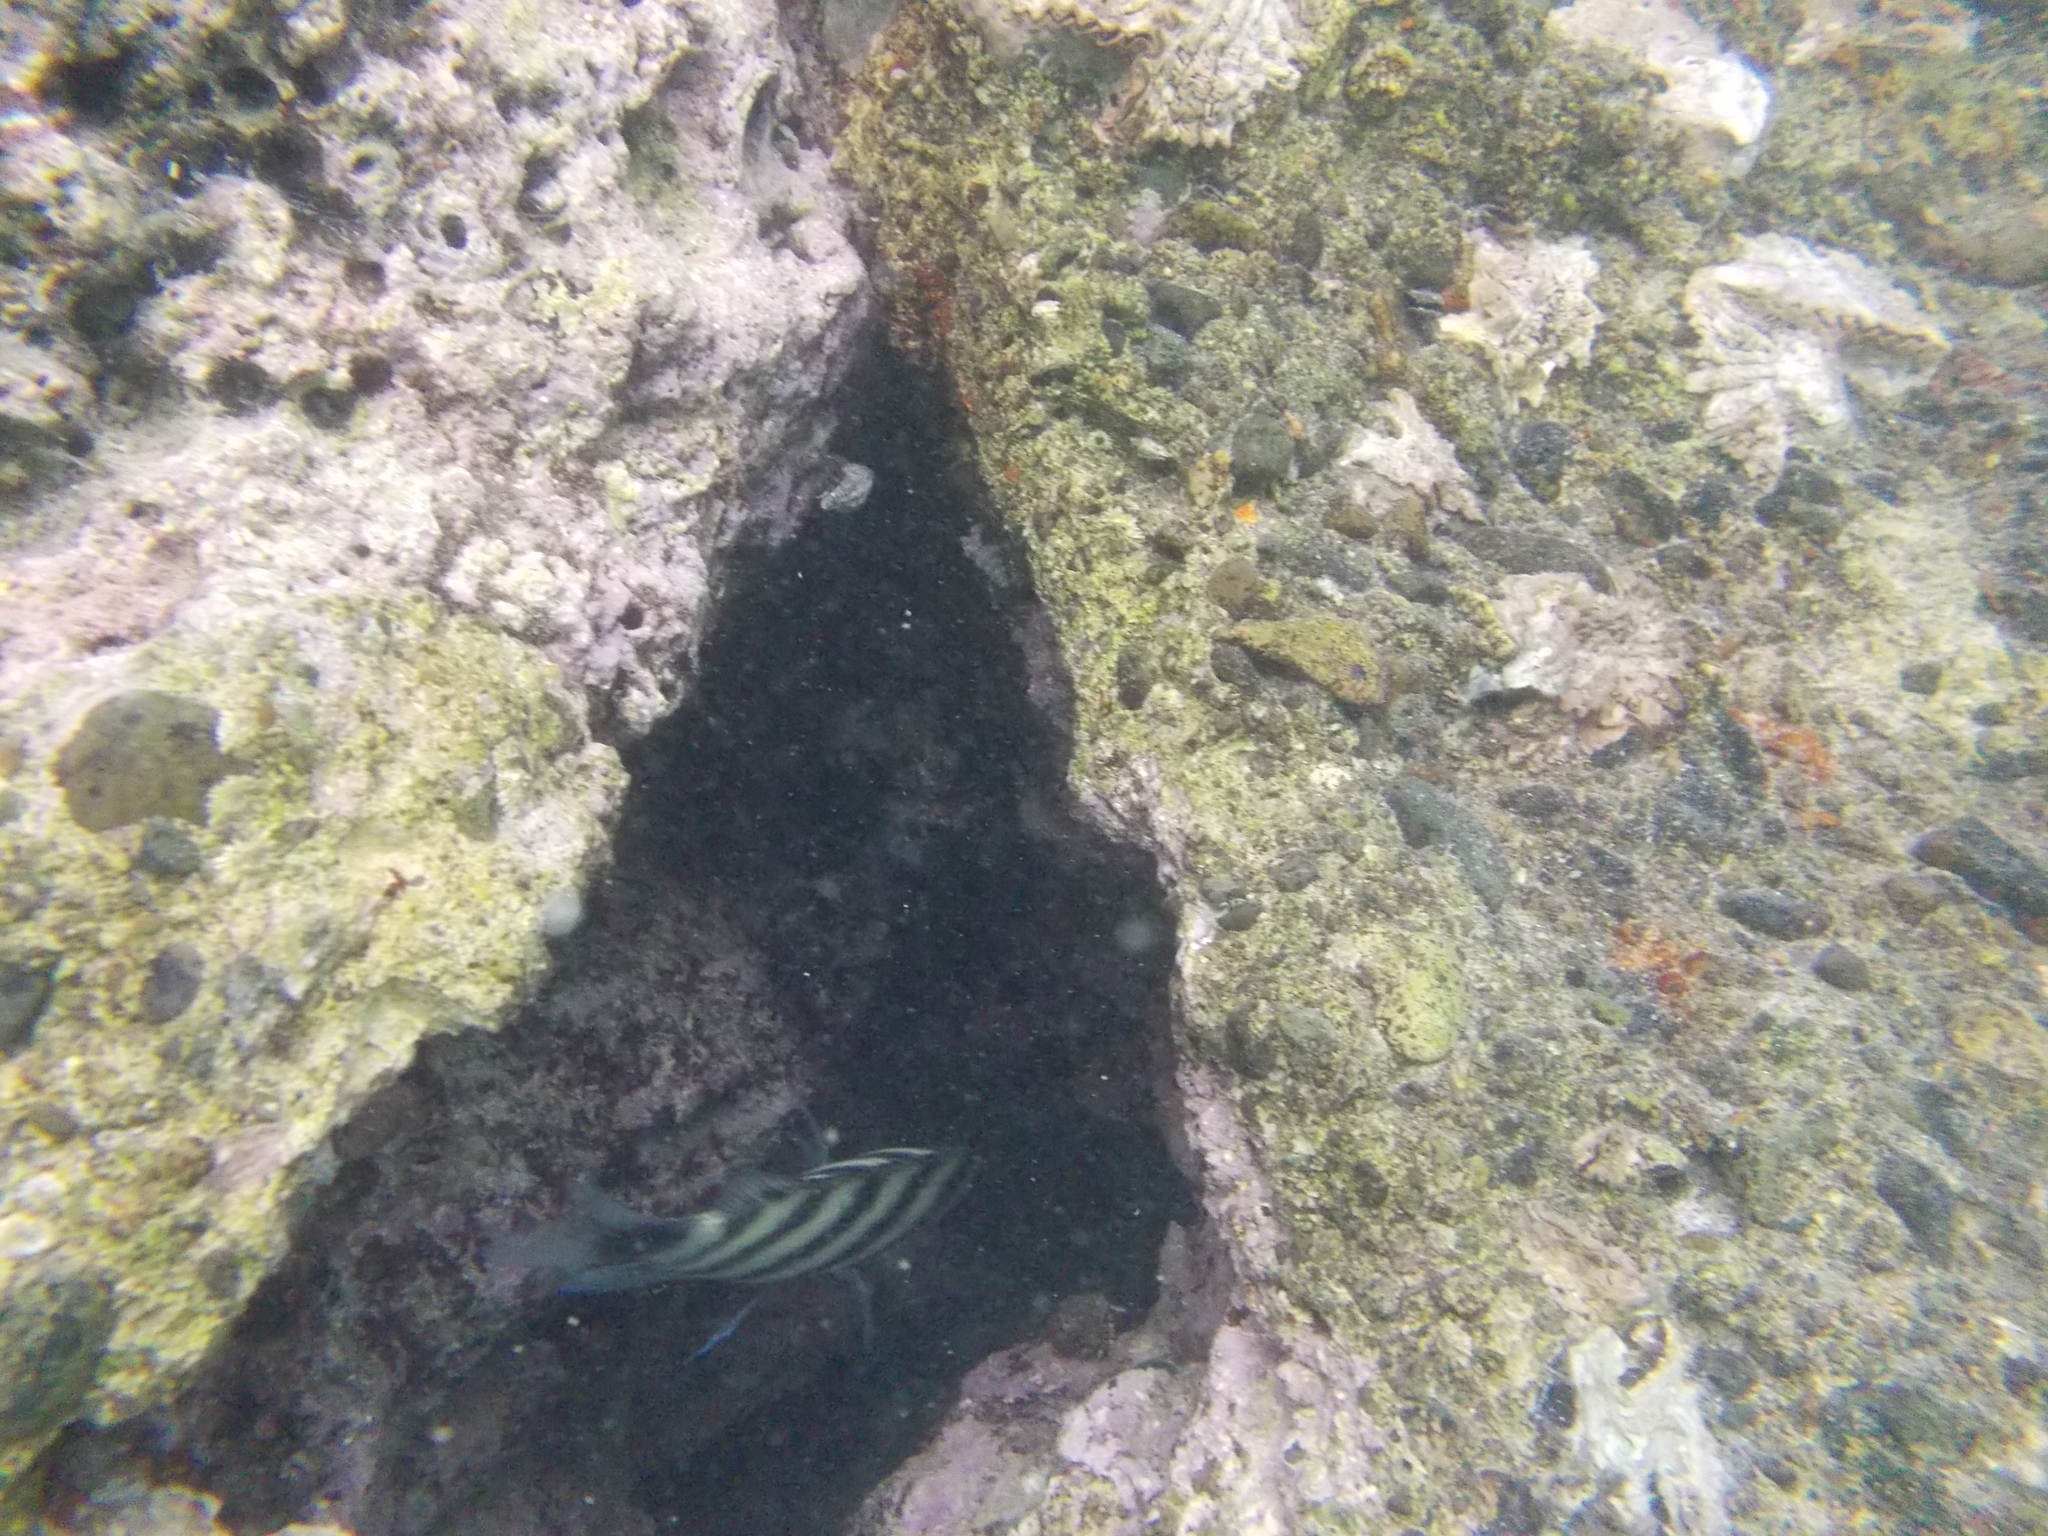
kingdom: Animalia
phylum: Chordata
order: Perciformes
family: Pomacentridae
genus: Abudefduf
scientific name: Abudefduf lorenzi
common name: Black-tail sergeant
